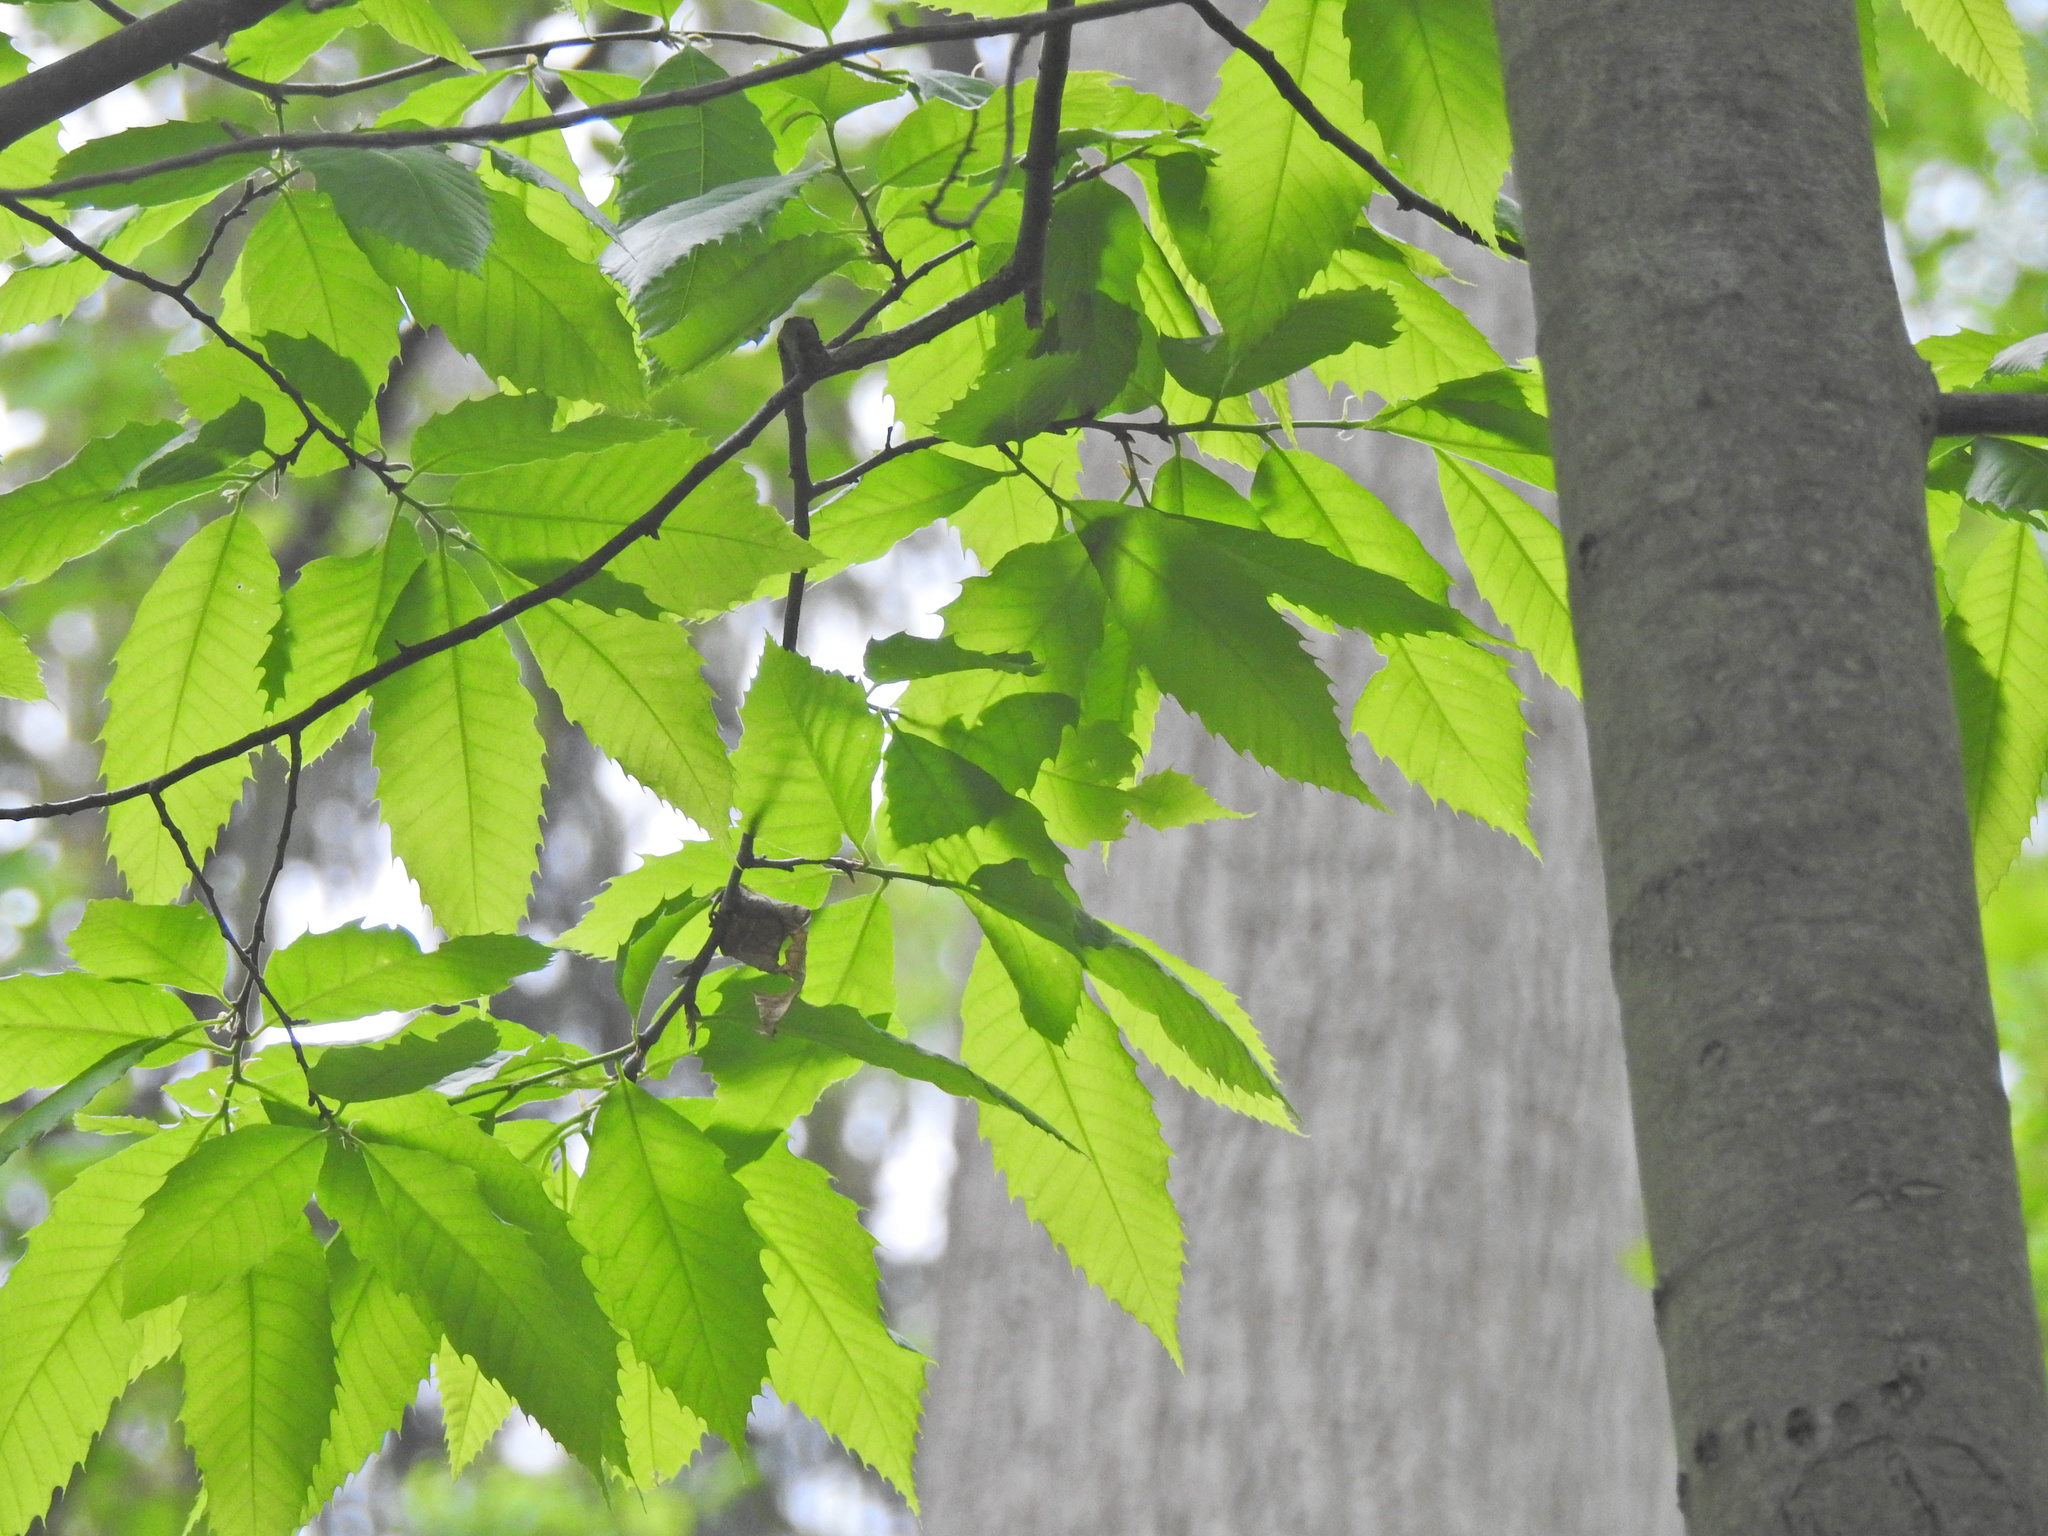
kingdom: Plantae
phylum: Tracheophyta
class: Magnoliopsida
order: Fagales
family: Fagaceae
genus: Castanea
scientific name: Castanea dentata
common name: American chestnut
